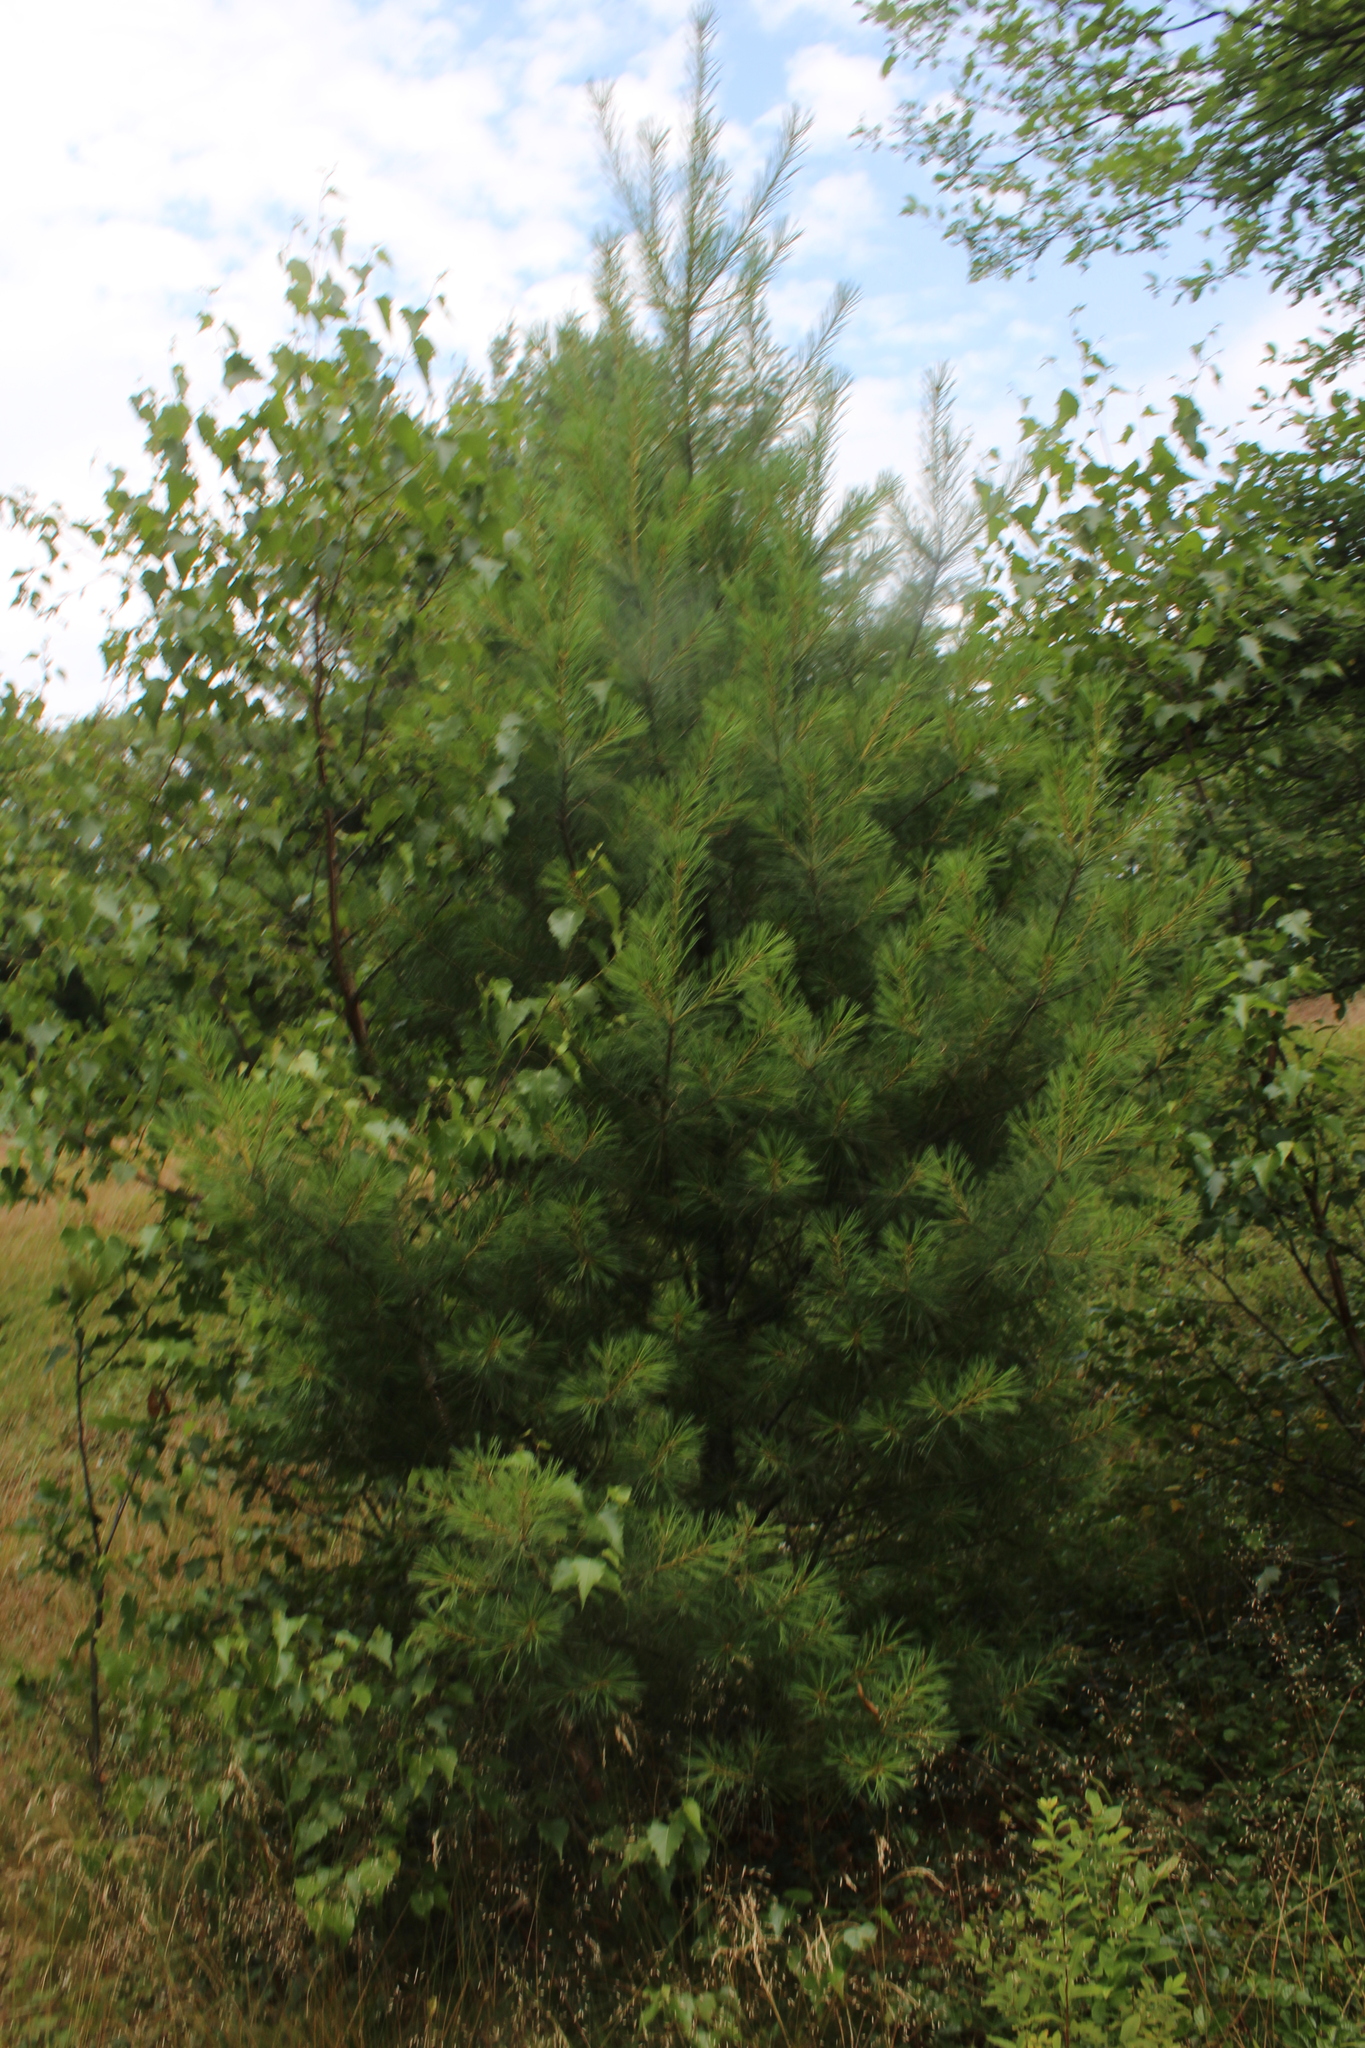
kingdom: Plantae
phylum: Tracheophyta
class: Pinopsida
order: Pinales
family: Pinaceae
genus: Pinus
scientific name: Pinus strobus
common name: Weymouth pine
